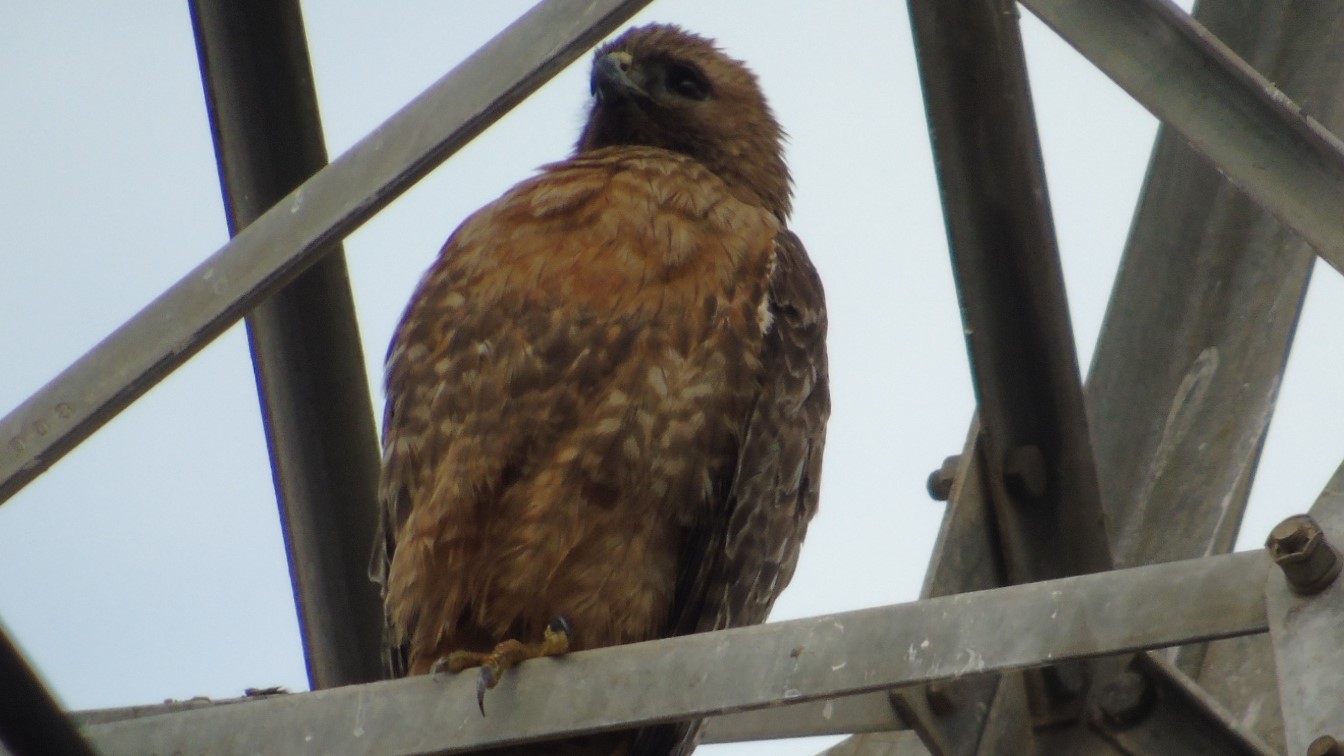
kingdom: Animalia
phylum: Chordata
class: Aves
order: Accipitriformes
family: Accipitridae
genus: Buteo
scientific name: Buteo jamaicensis
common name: Red-tailed hawk
